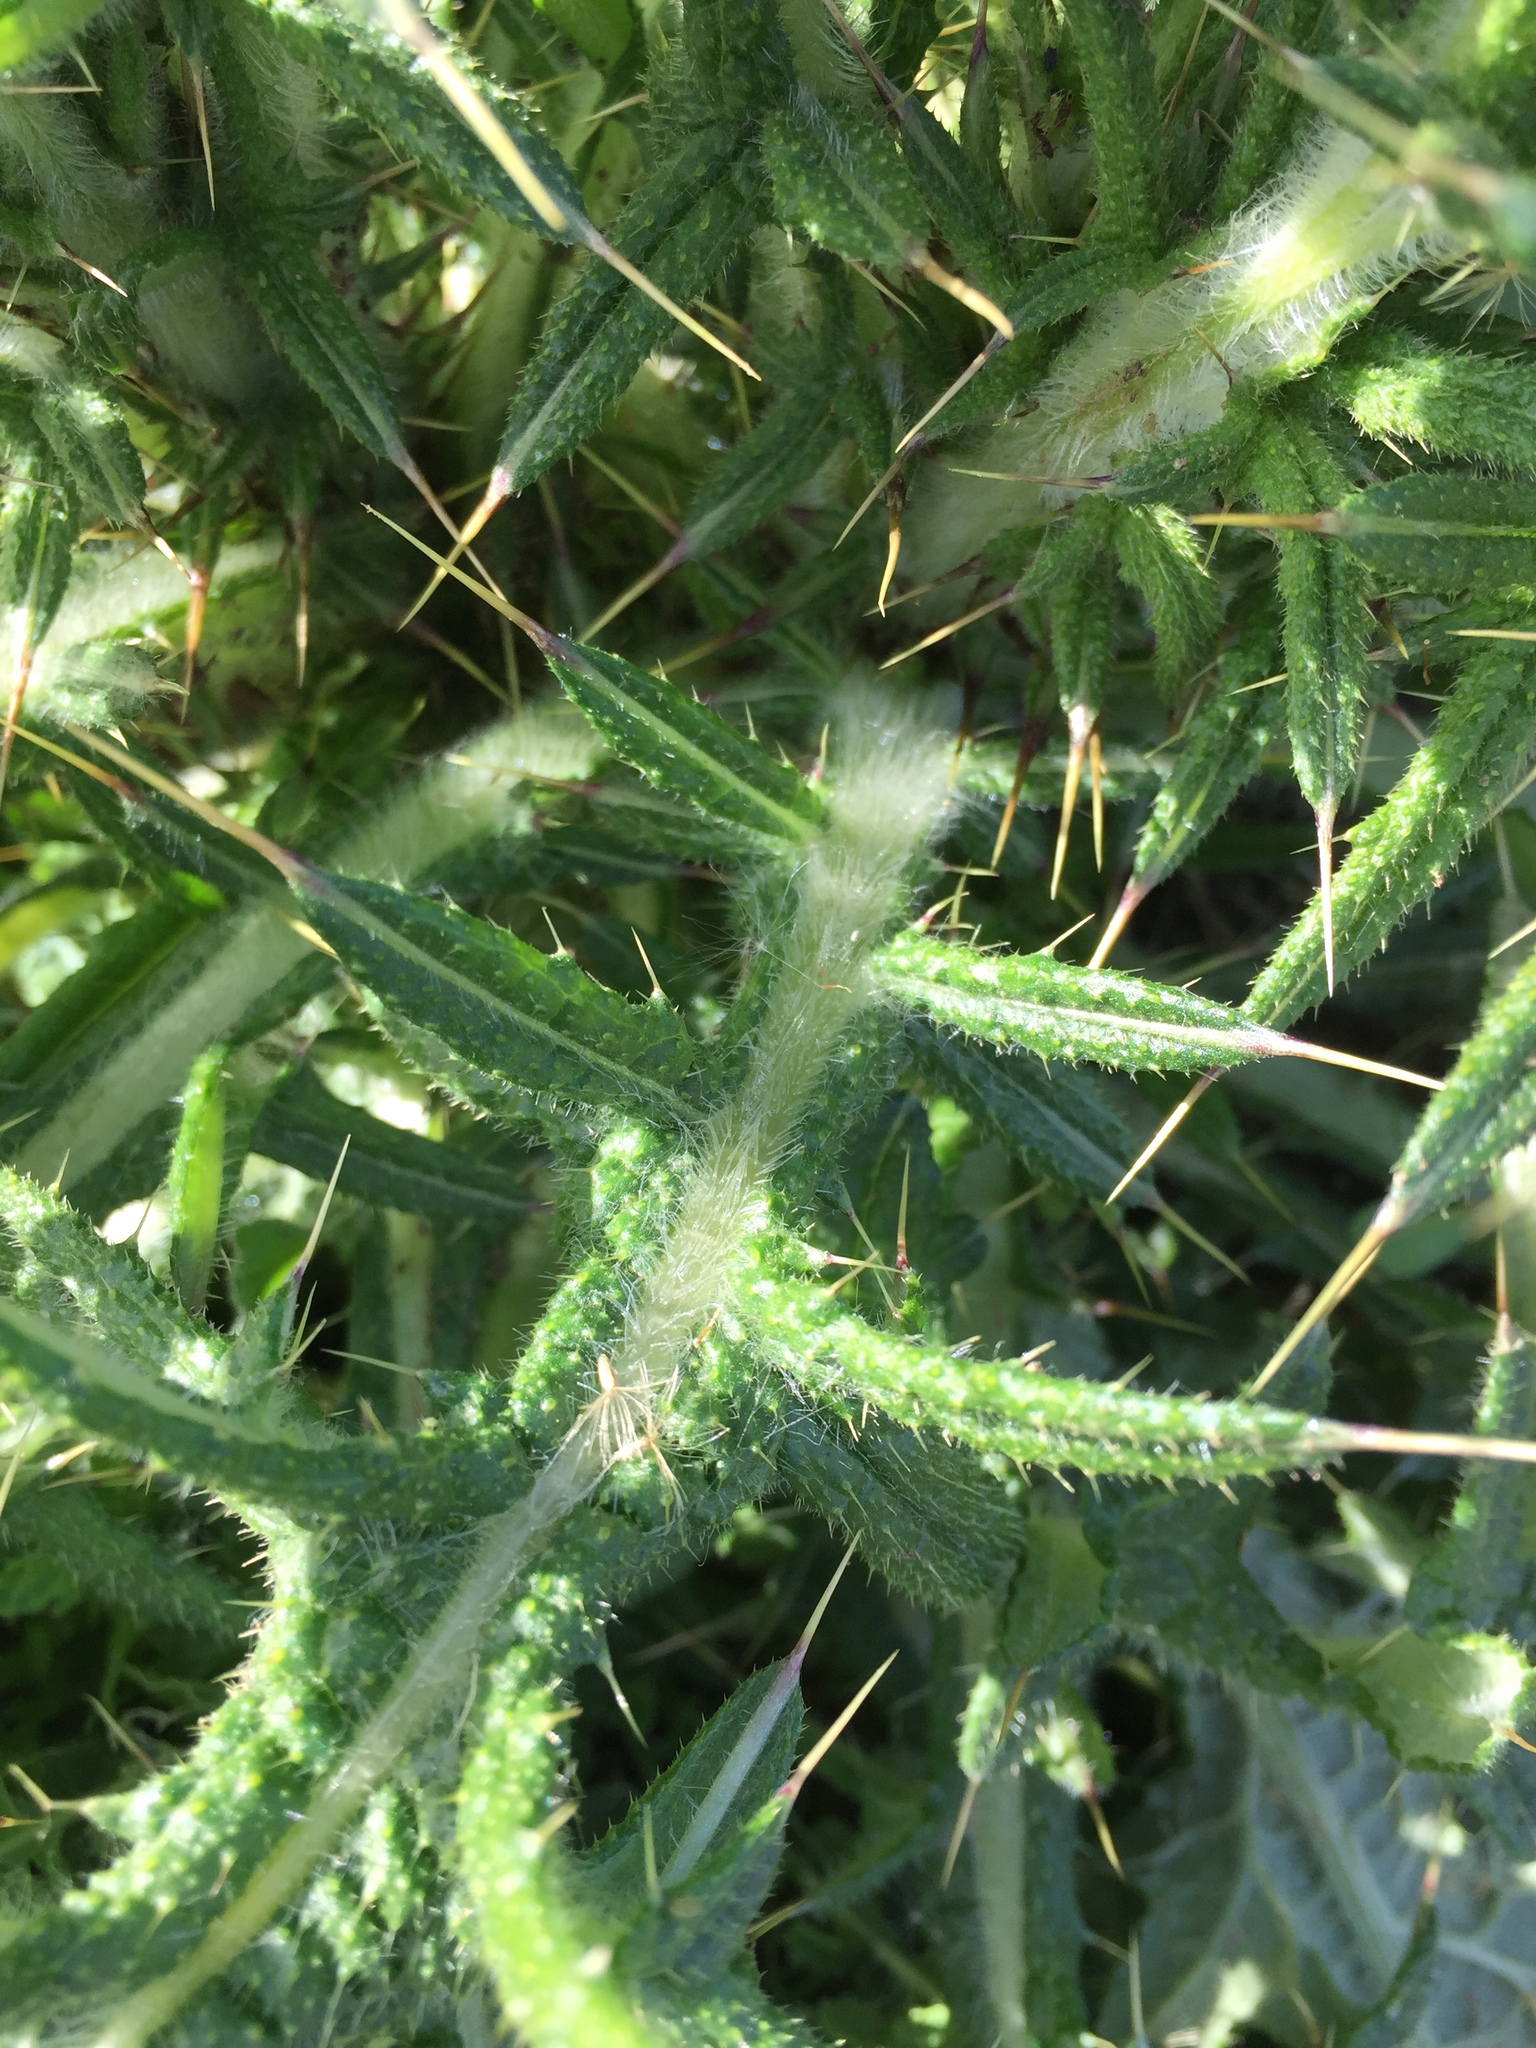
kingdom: Plantae
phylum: Tracheophyta
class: Magnoliopsida
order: Asterales
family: Asteraceae
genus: Cirsium
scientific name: Cirsium vulgare
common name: Bull thistle
